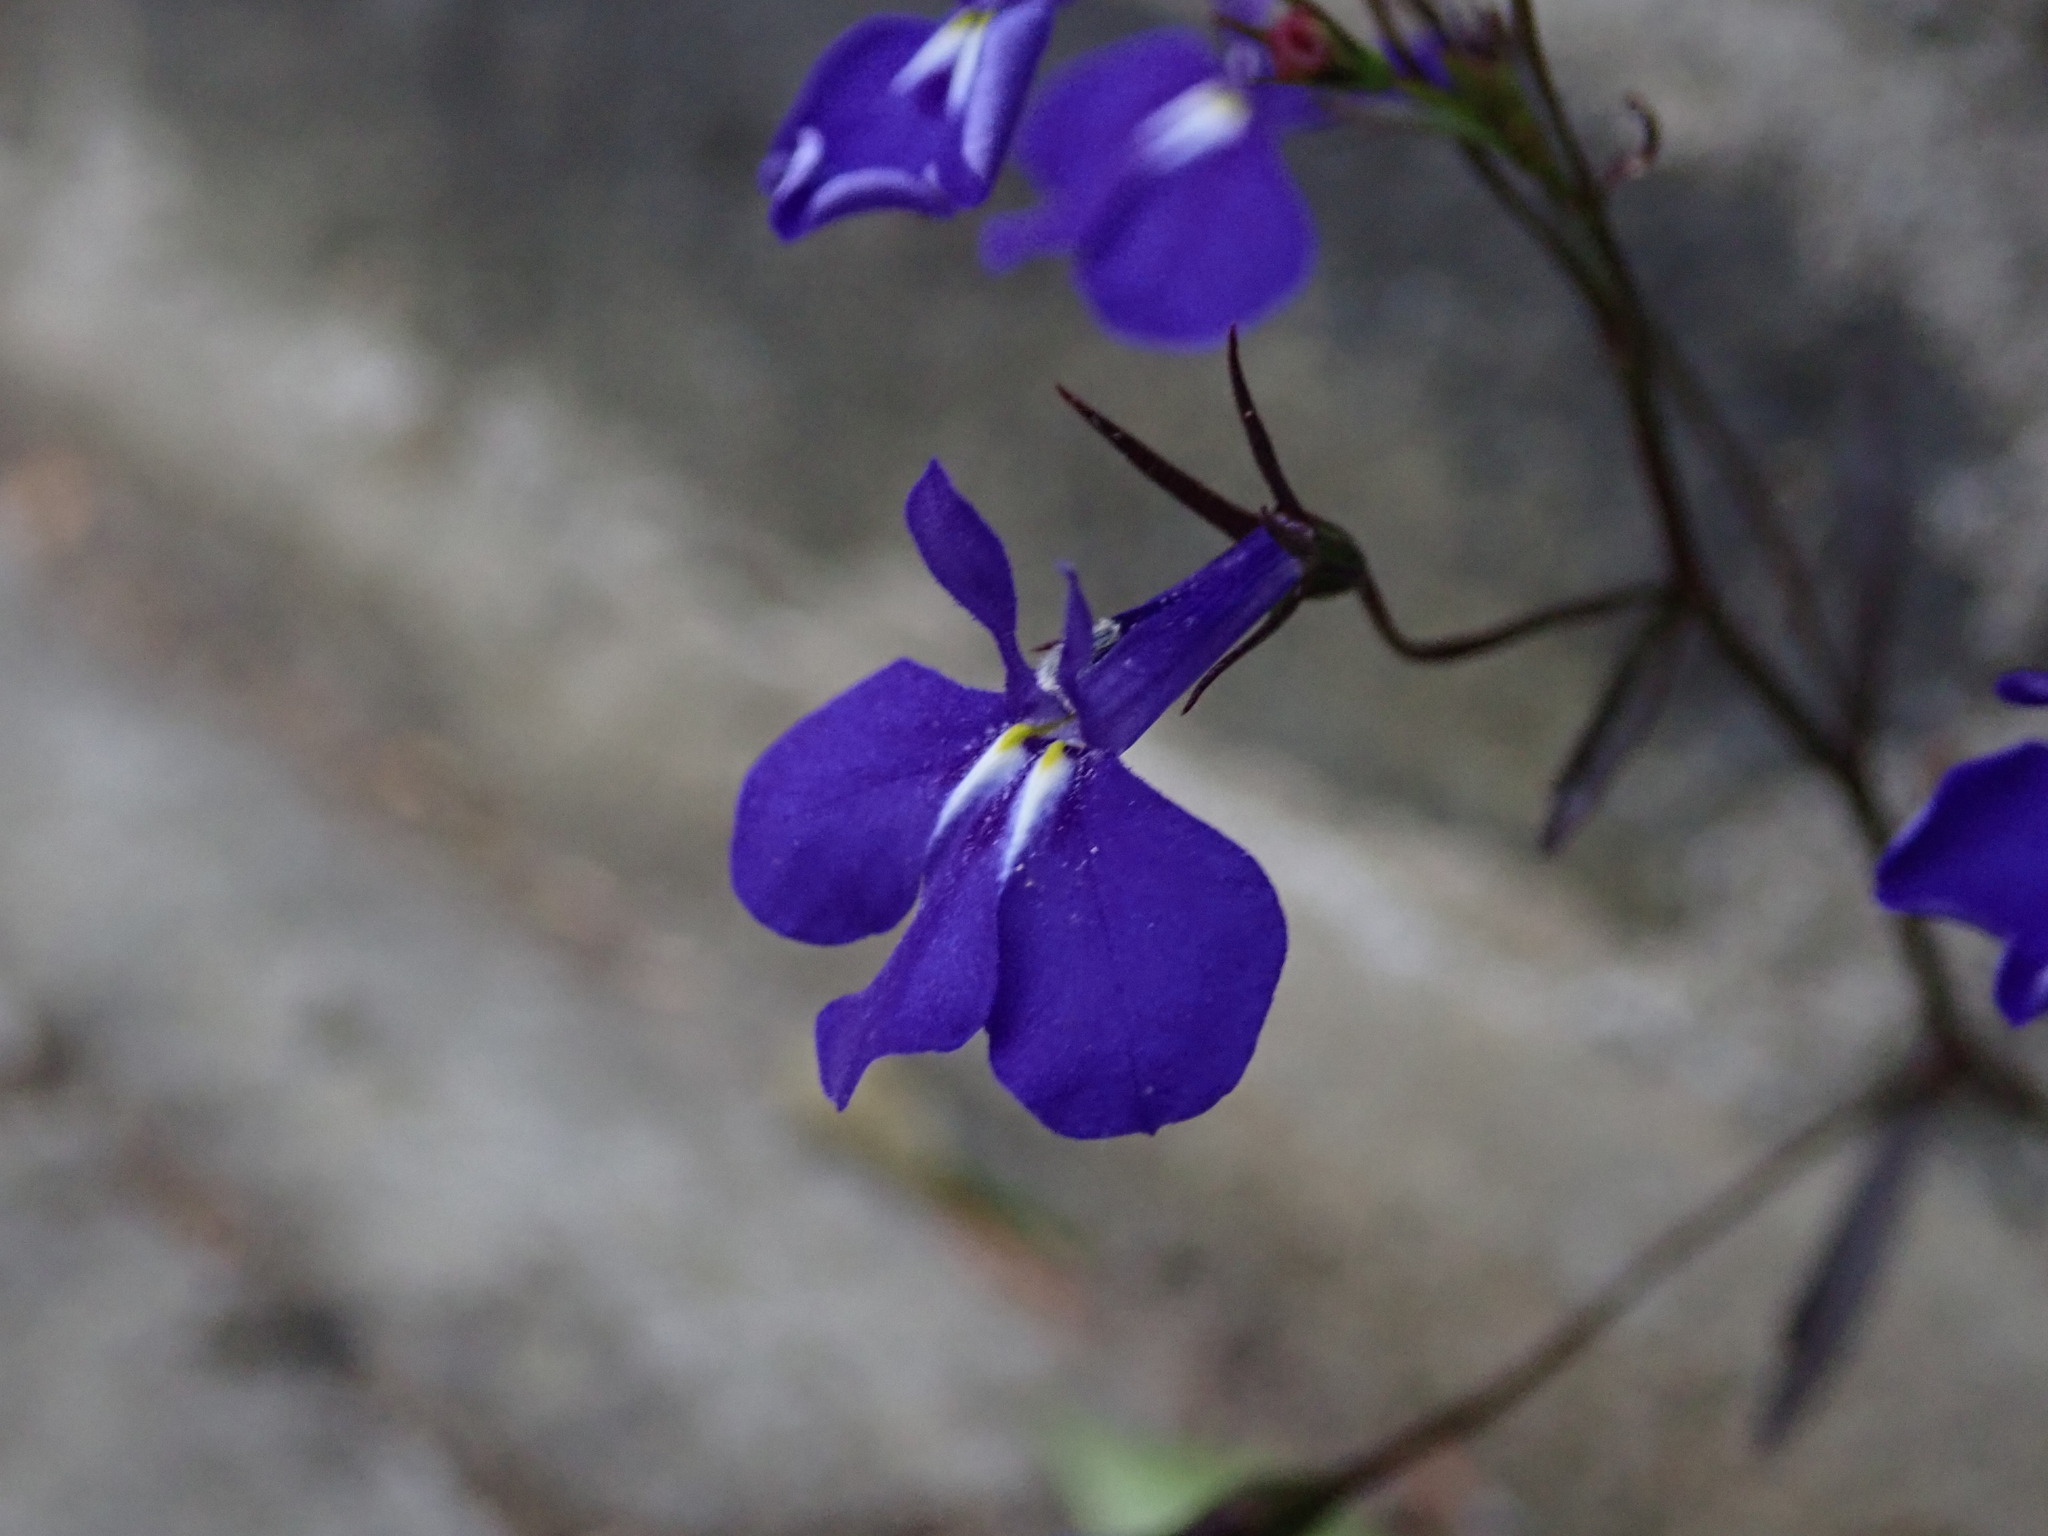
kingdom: Plantae
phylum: Tracheophyta
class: Magnoliopsida
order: Asterales
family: Campanulaceae
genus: Lobelia
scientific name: Lobelia erinus
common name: Edging lobelia
